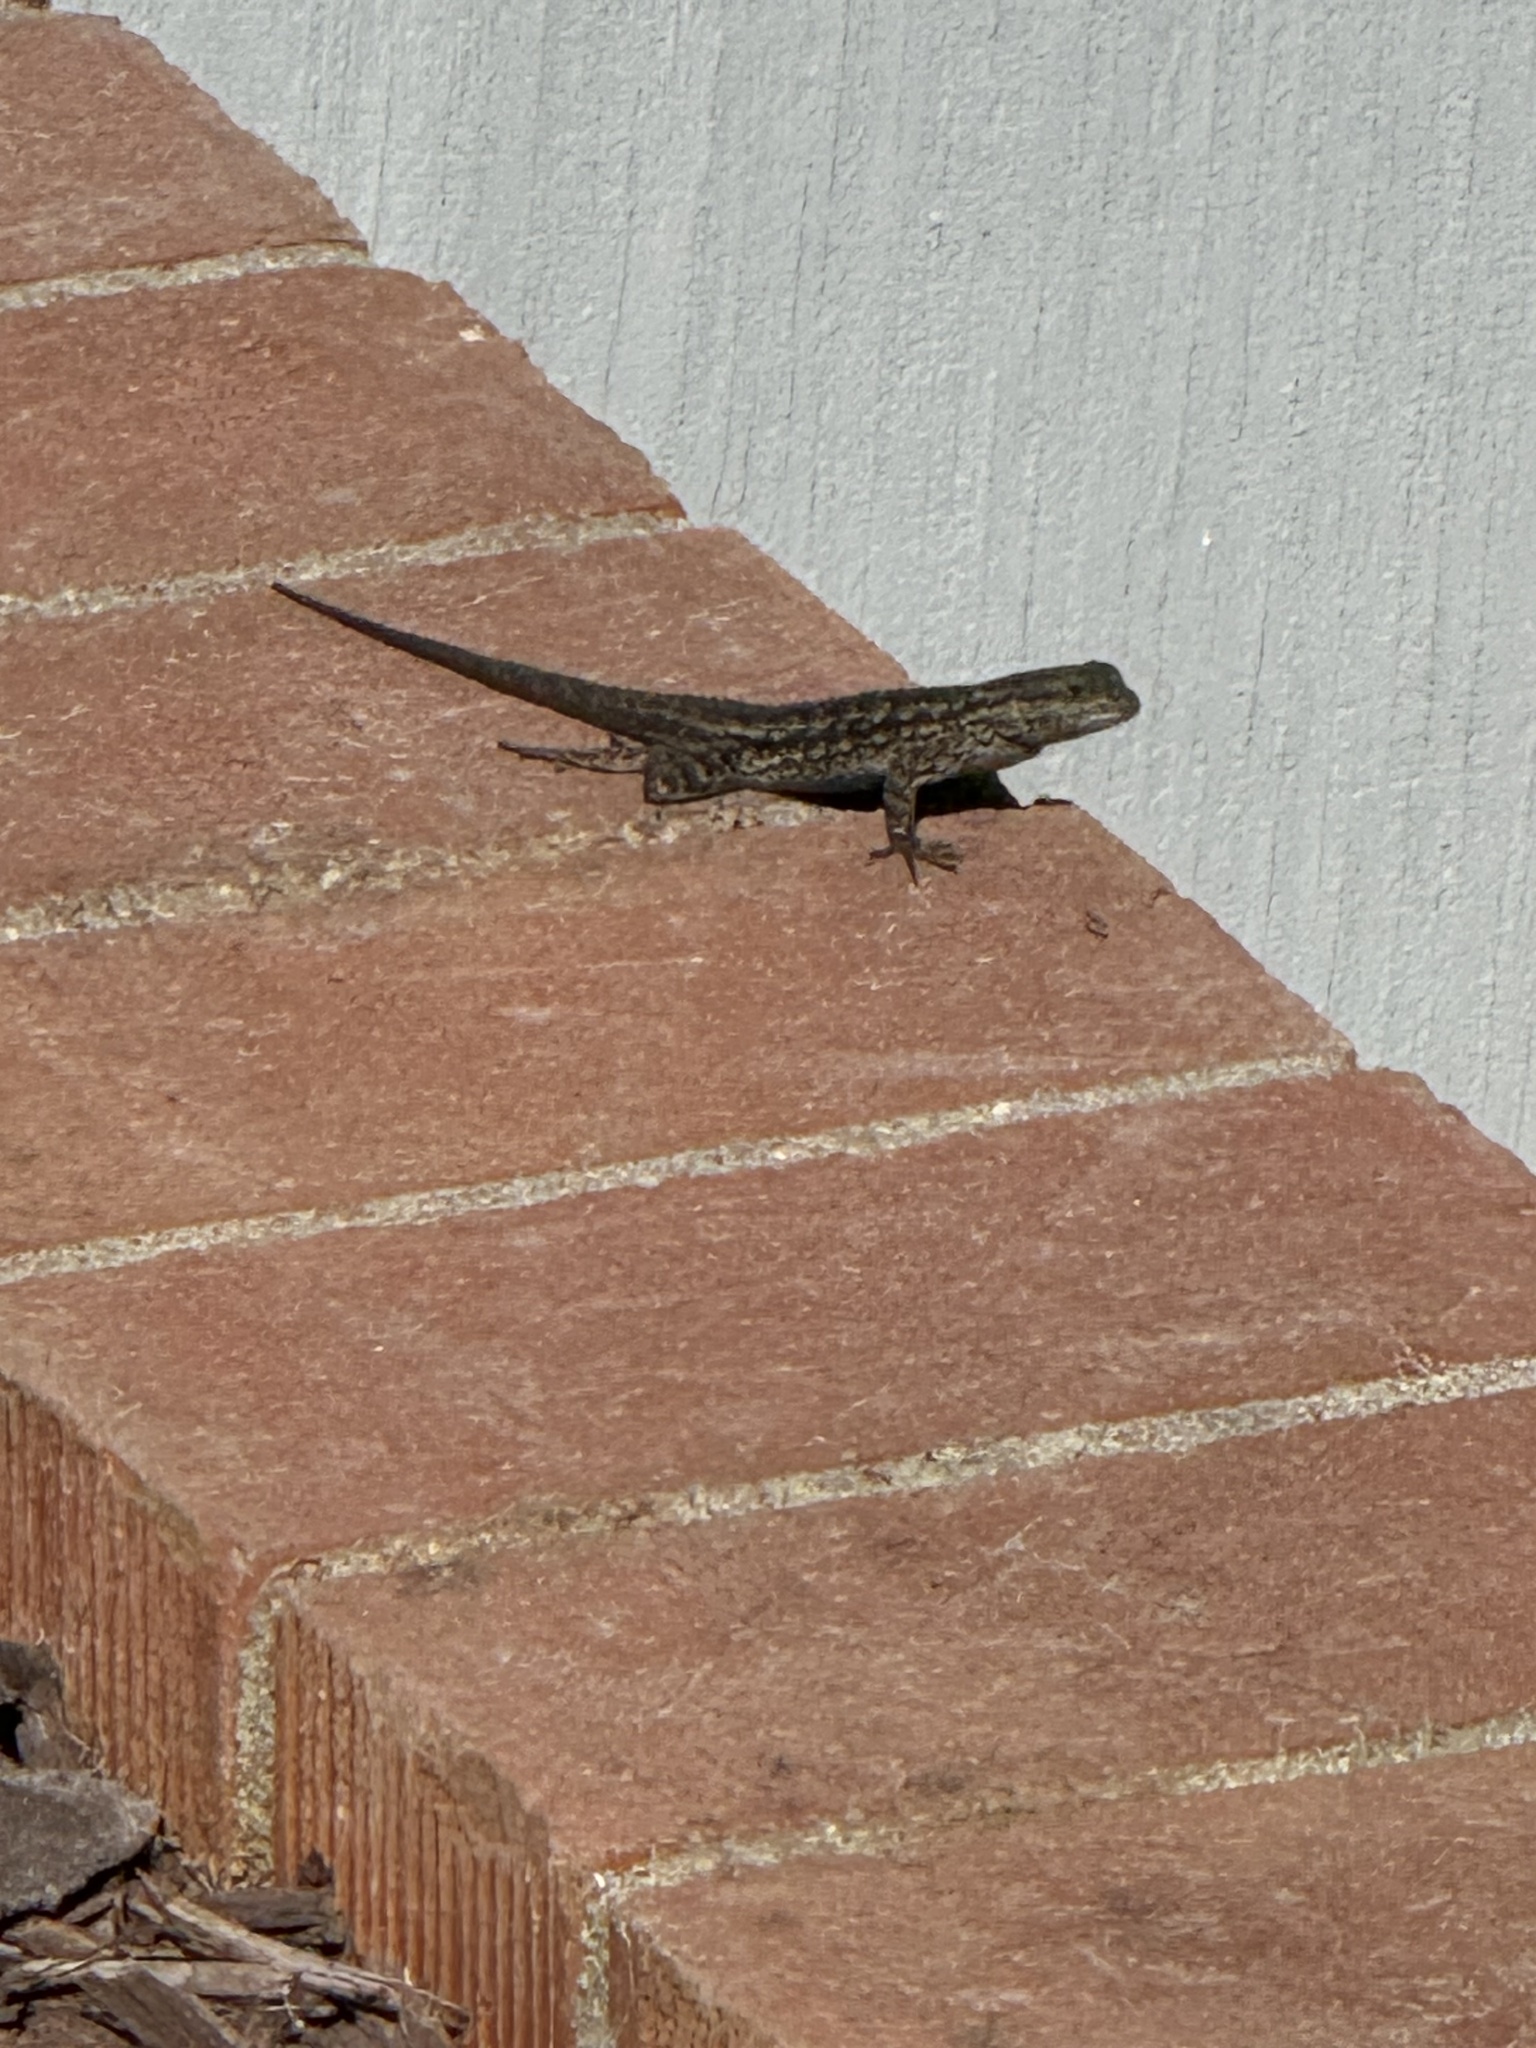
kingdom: Animalia
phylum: Chordata
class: Squamata
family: Phrynosomatidae
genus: Sceloporus
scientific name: Sceloporus occidentalis
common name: Western fence lizard
